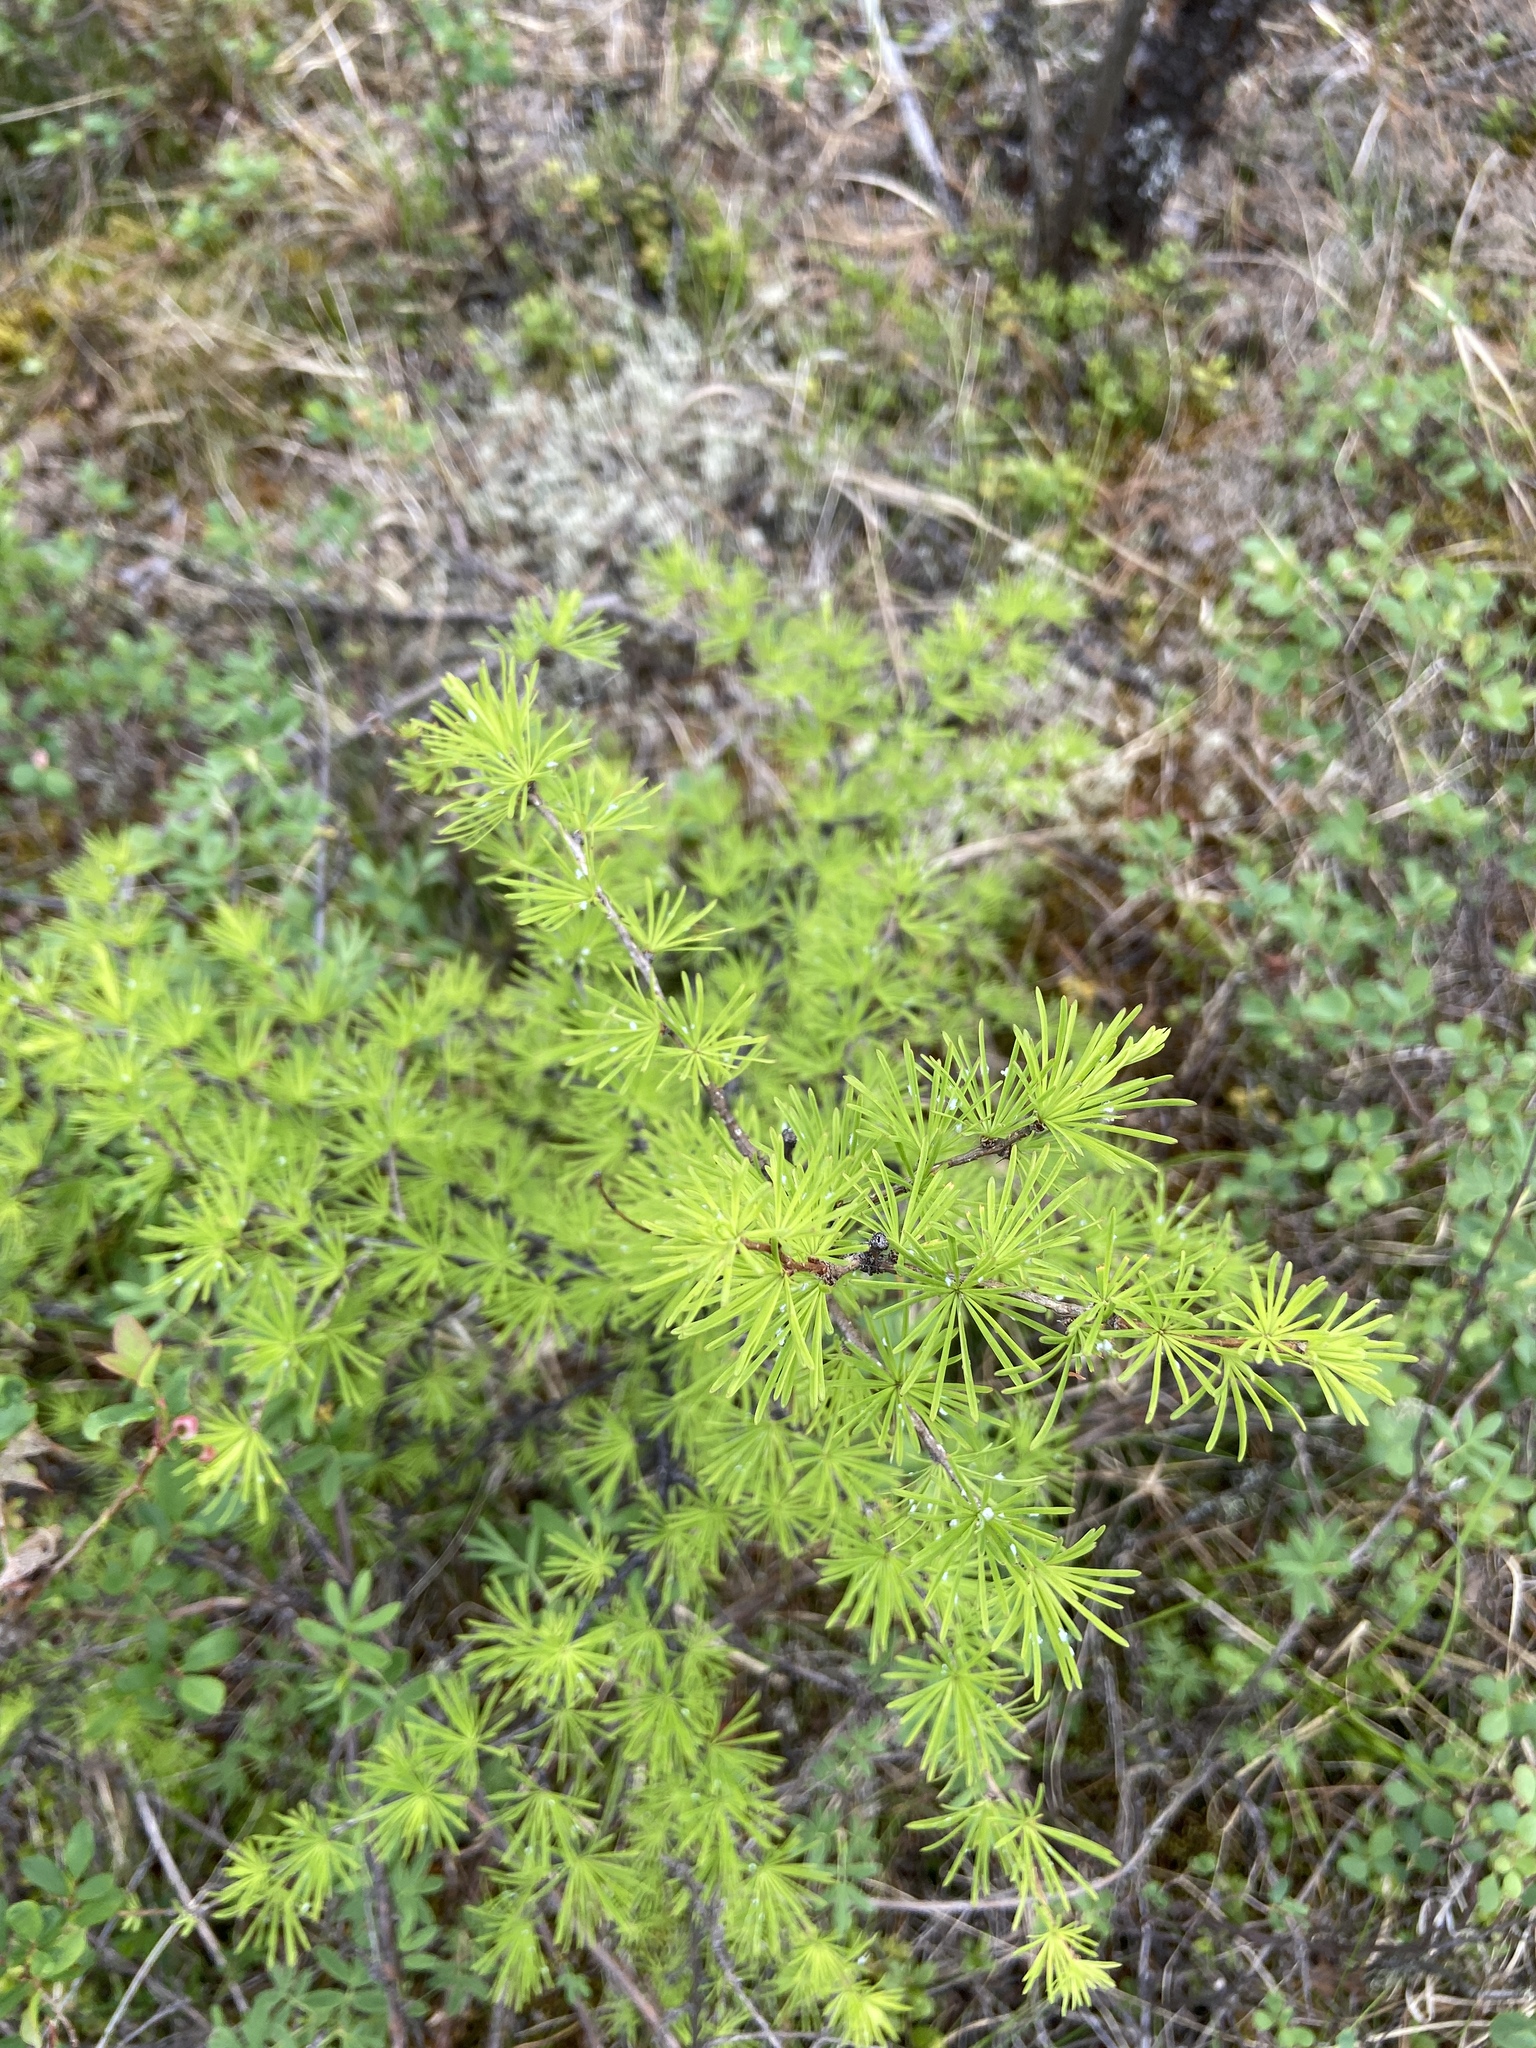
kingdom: Plantae
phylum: Tracheophyta
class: Pinopsida
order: Pinales
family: Pinaceae
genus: Larix
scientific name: Larix sibirica
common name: Siberian larch
